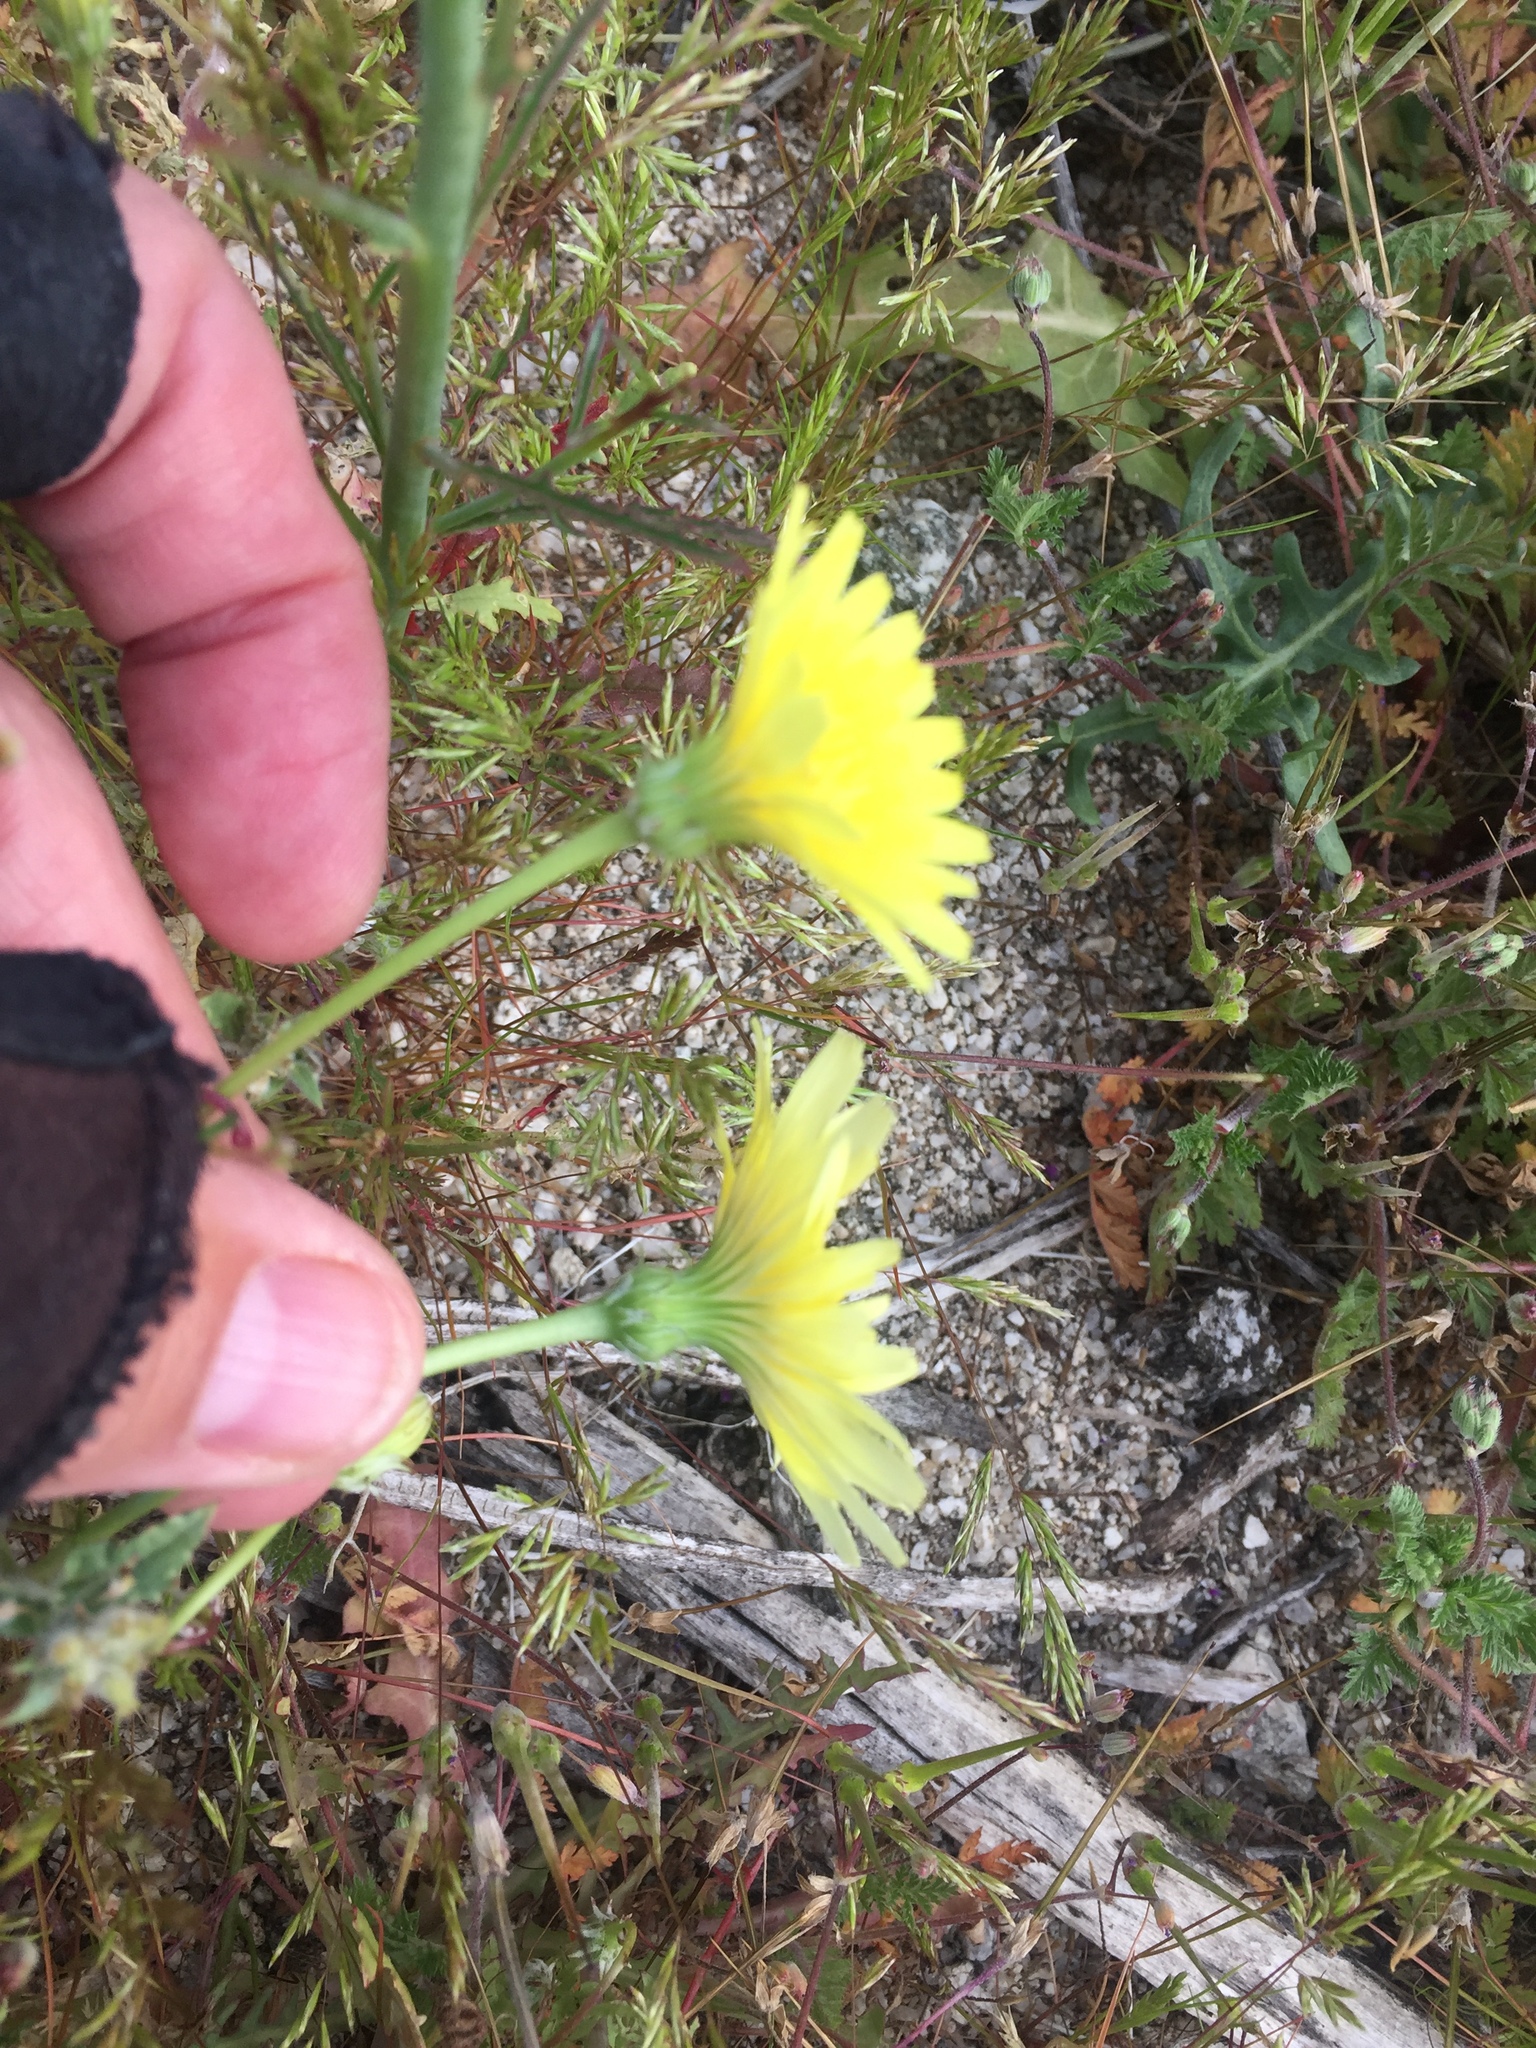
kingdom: Plantae
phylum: Tracheophyta
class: Magnoliopsida
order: Asterales
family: Asteraceae
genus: Malacothrix
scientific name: Malacothrix glabrata
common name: Smooth desert-dandelion
